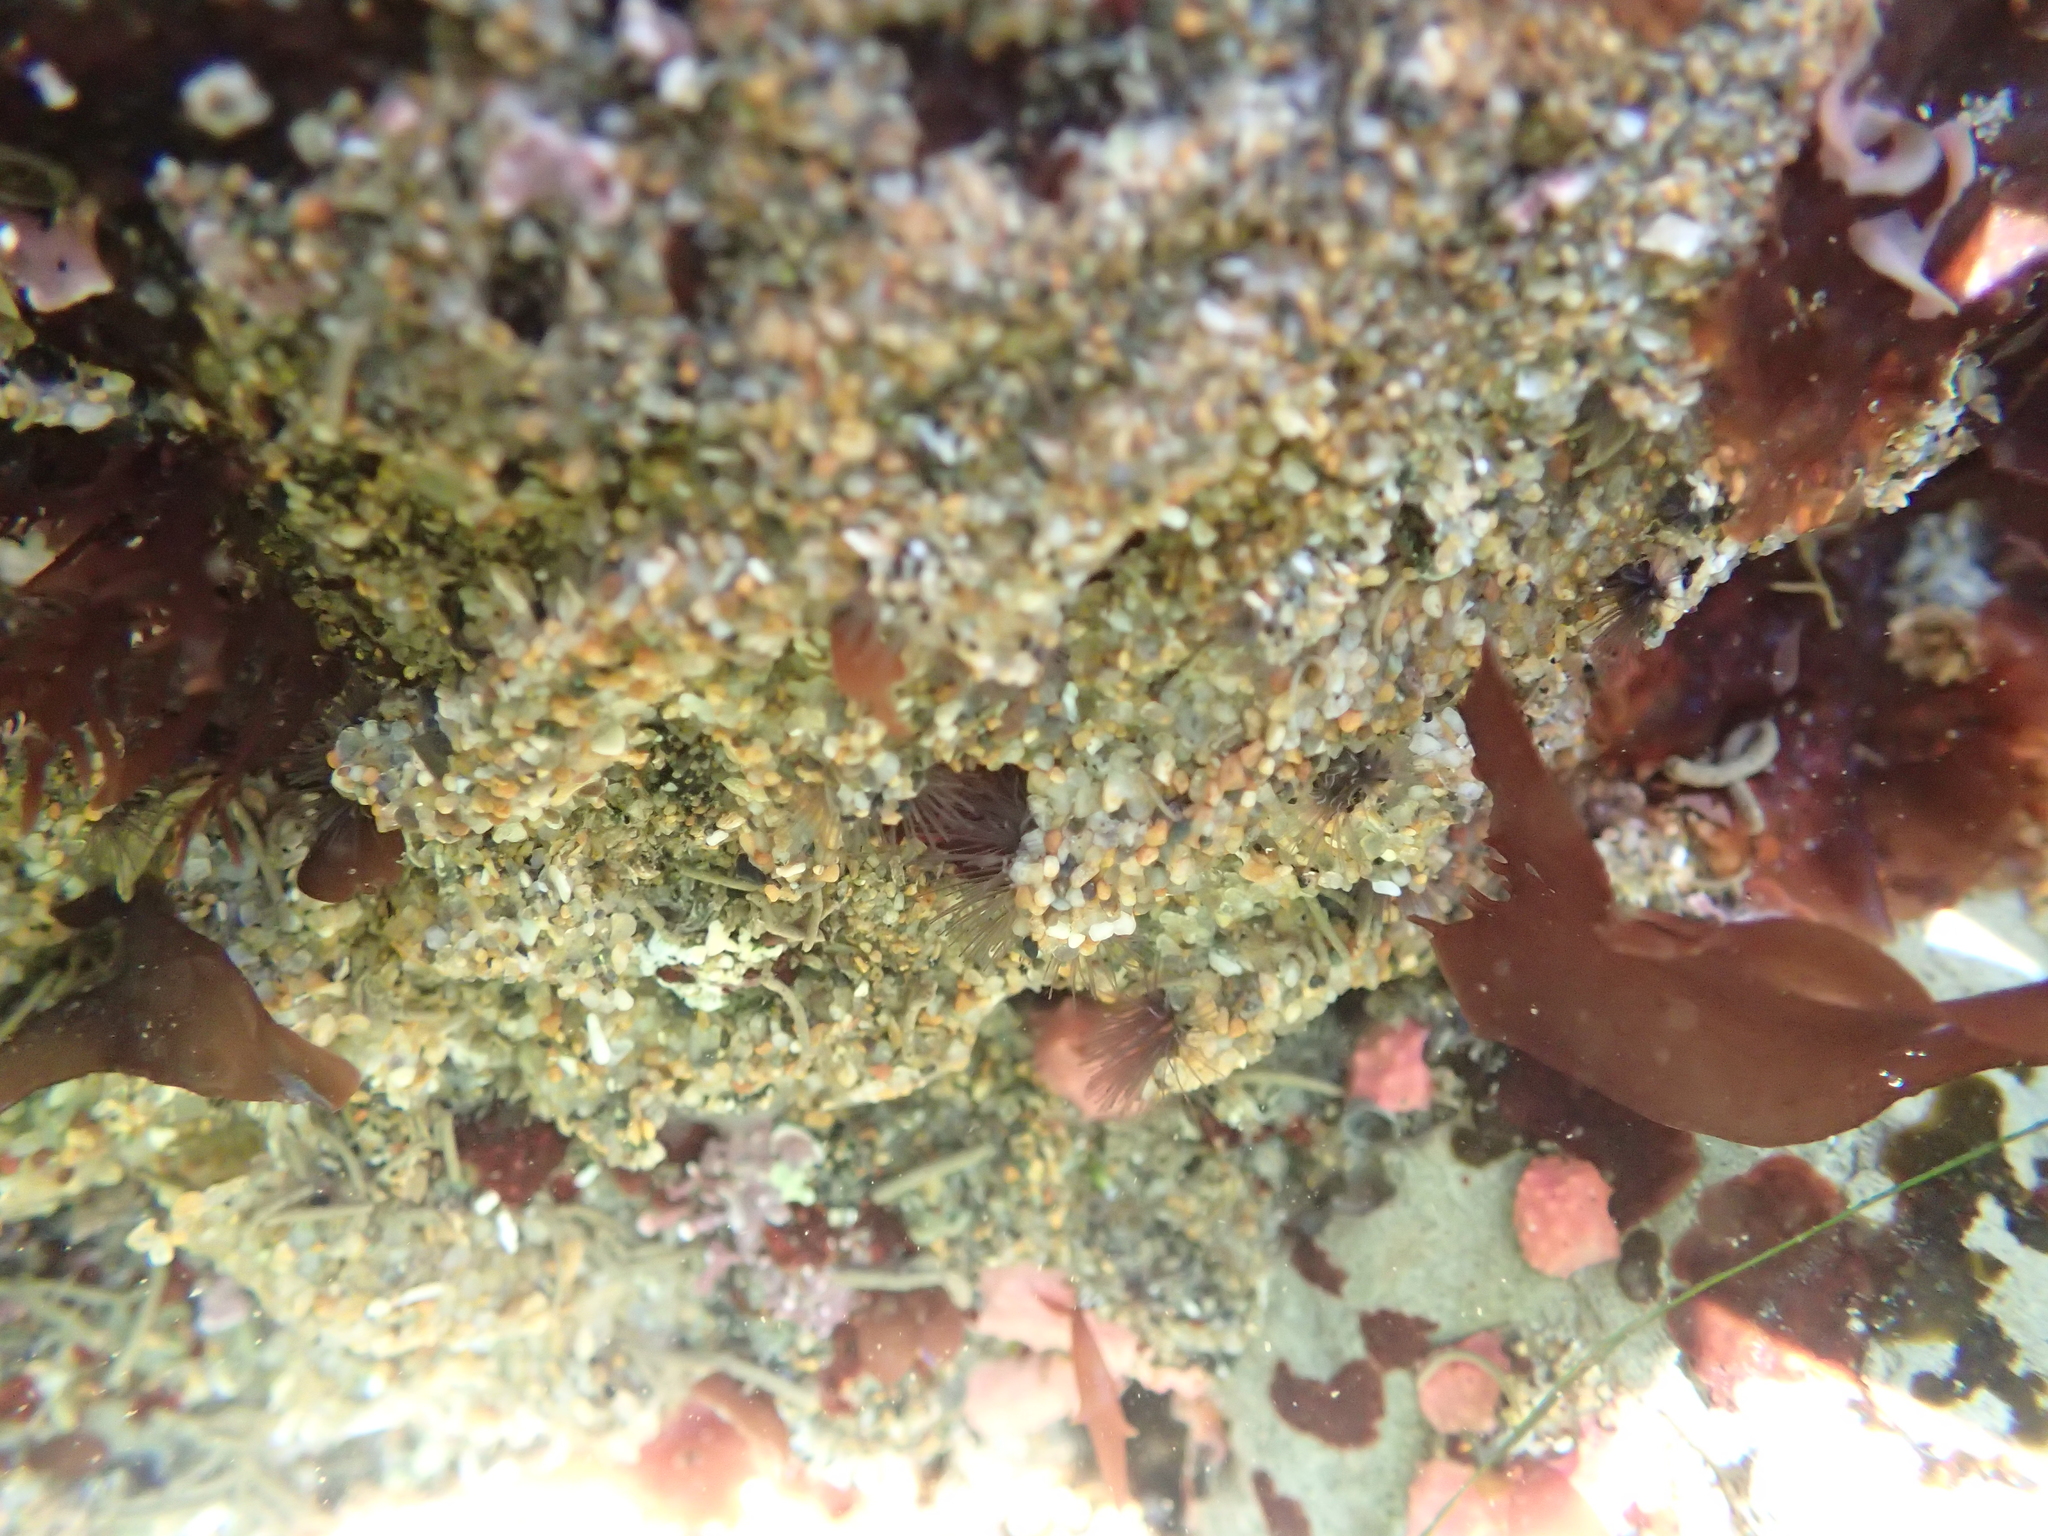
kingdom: Animalia
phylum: Annelida
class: Polychaeta
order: Sabellida
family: Sabellariidae
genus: Phragmatopoma
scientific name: Phragmatopoma californica
